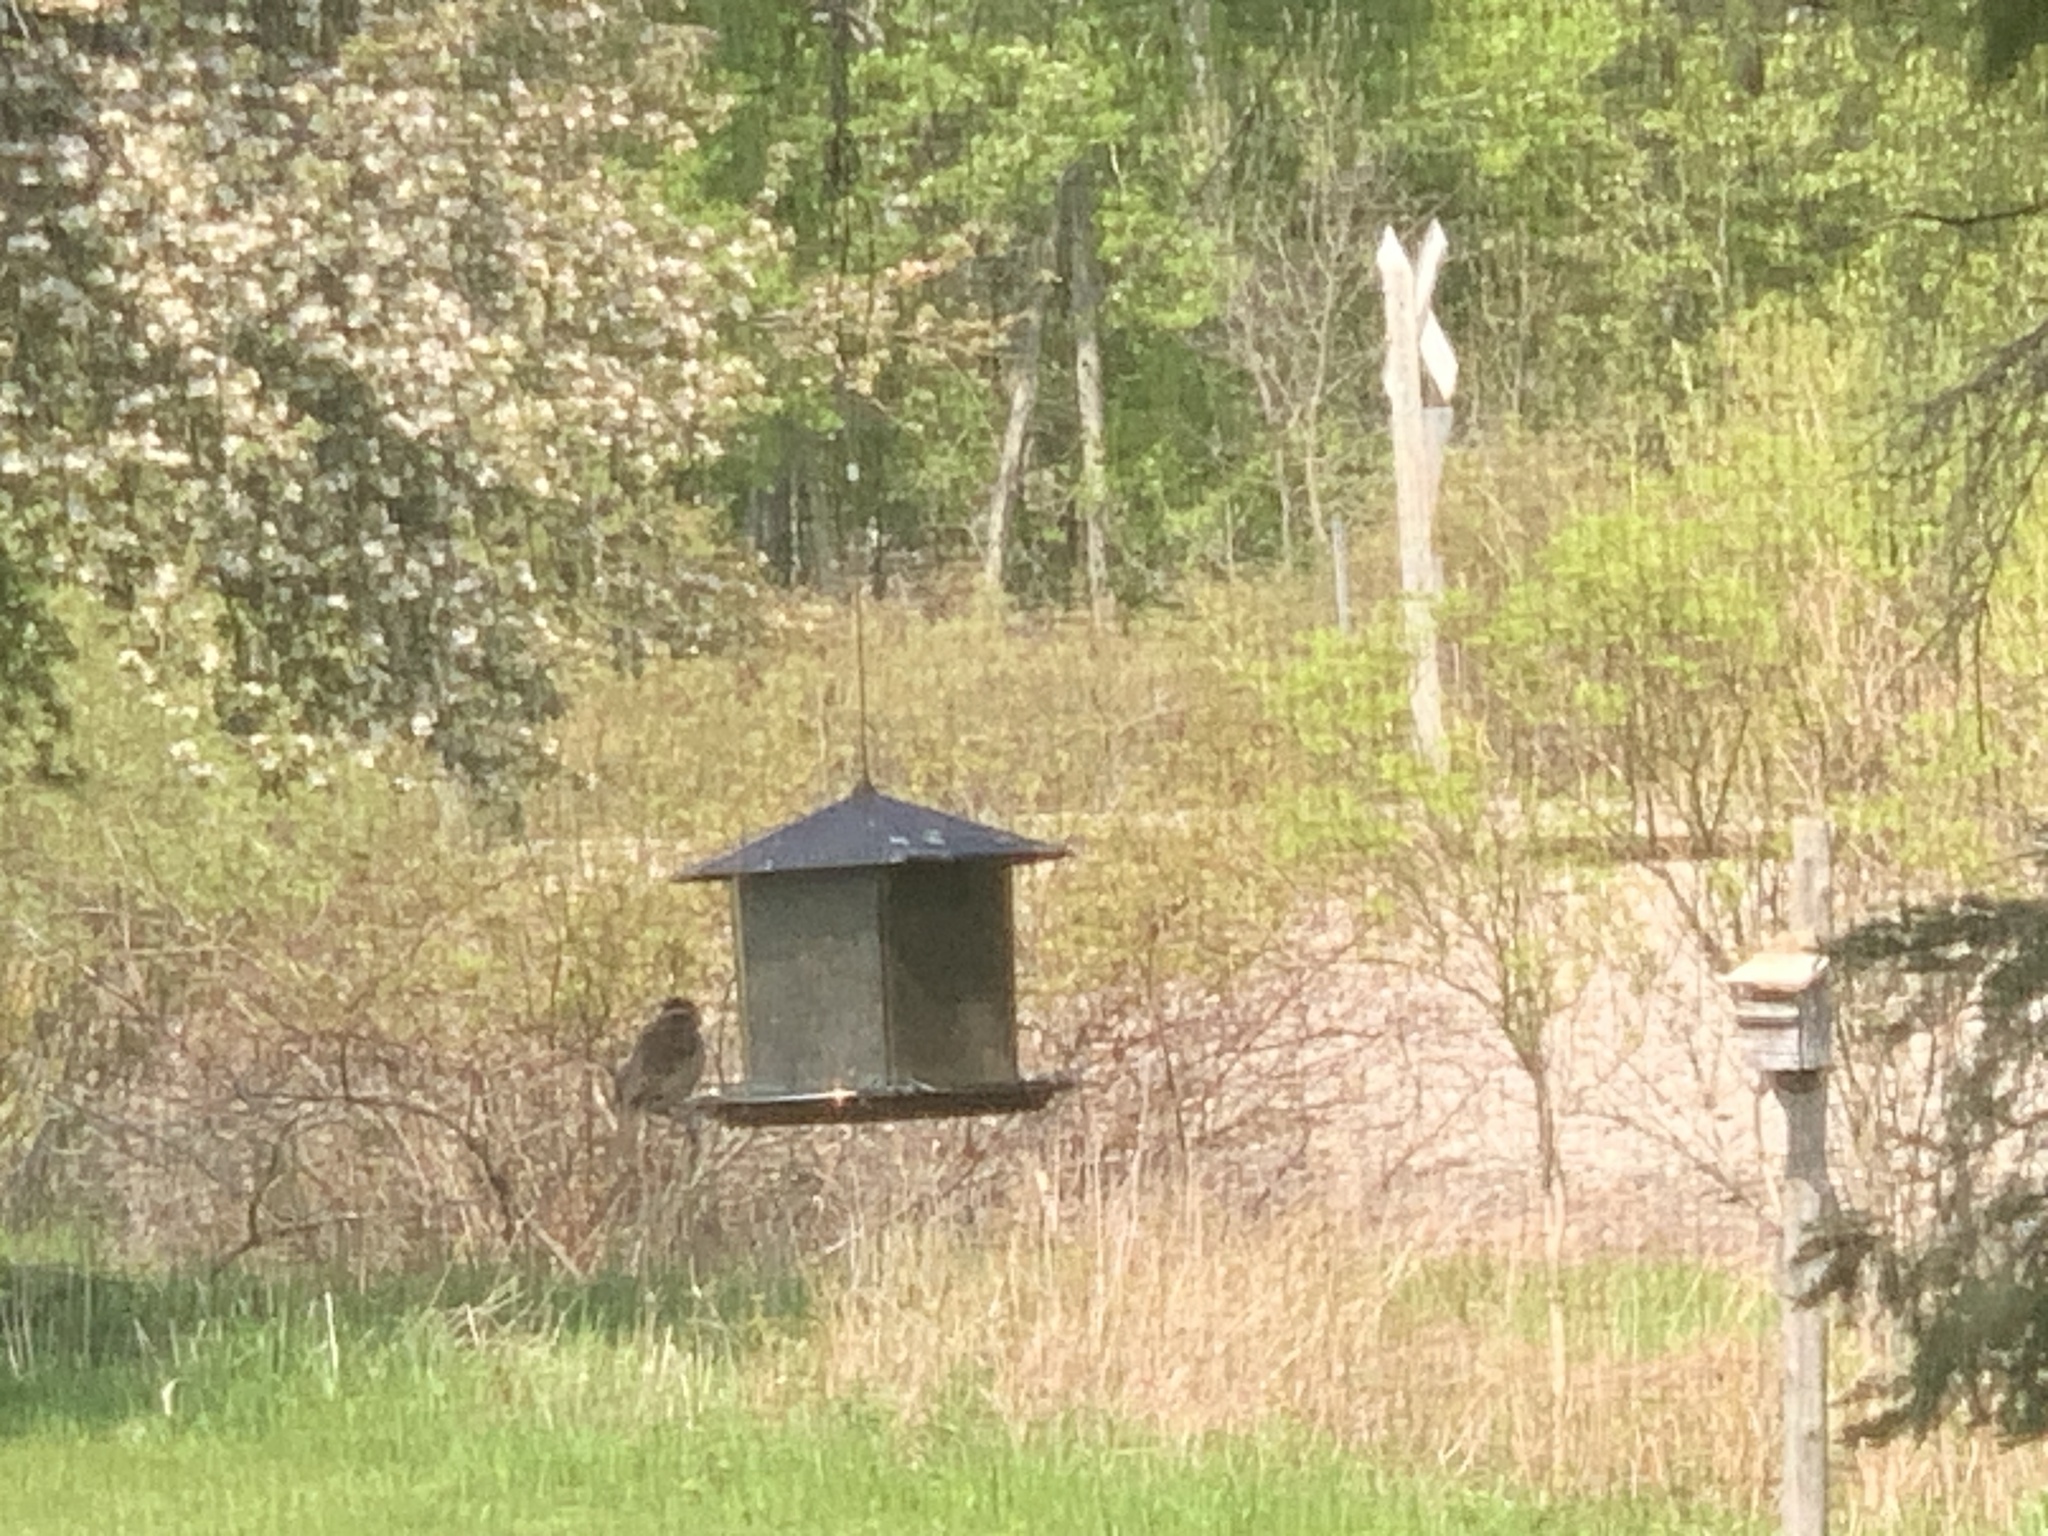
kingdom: Animalia
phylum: Chordata
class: Aves
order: Passeriformes
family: Cardinalidae
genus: Pheucticus
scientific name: Pheucticus ludovicianus
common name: Rose-breasted grosbeak
